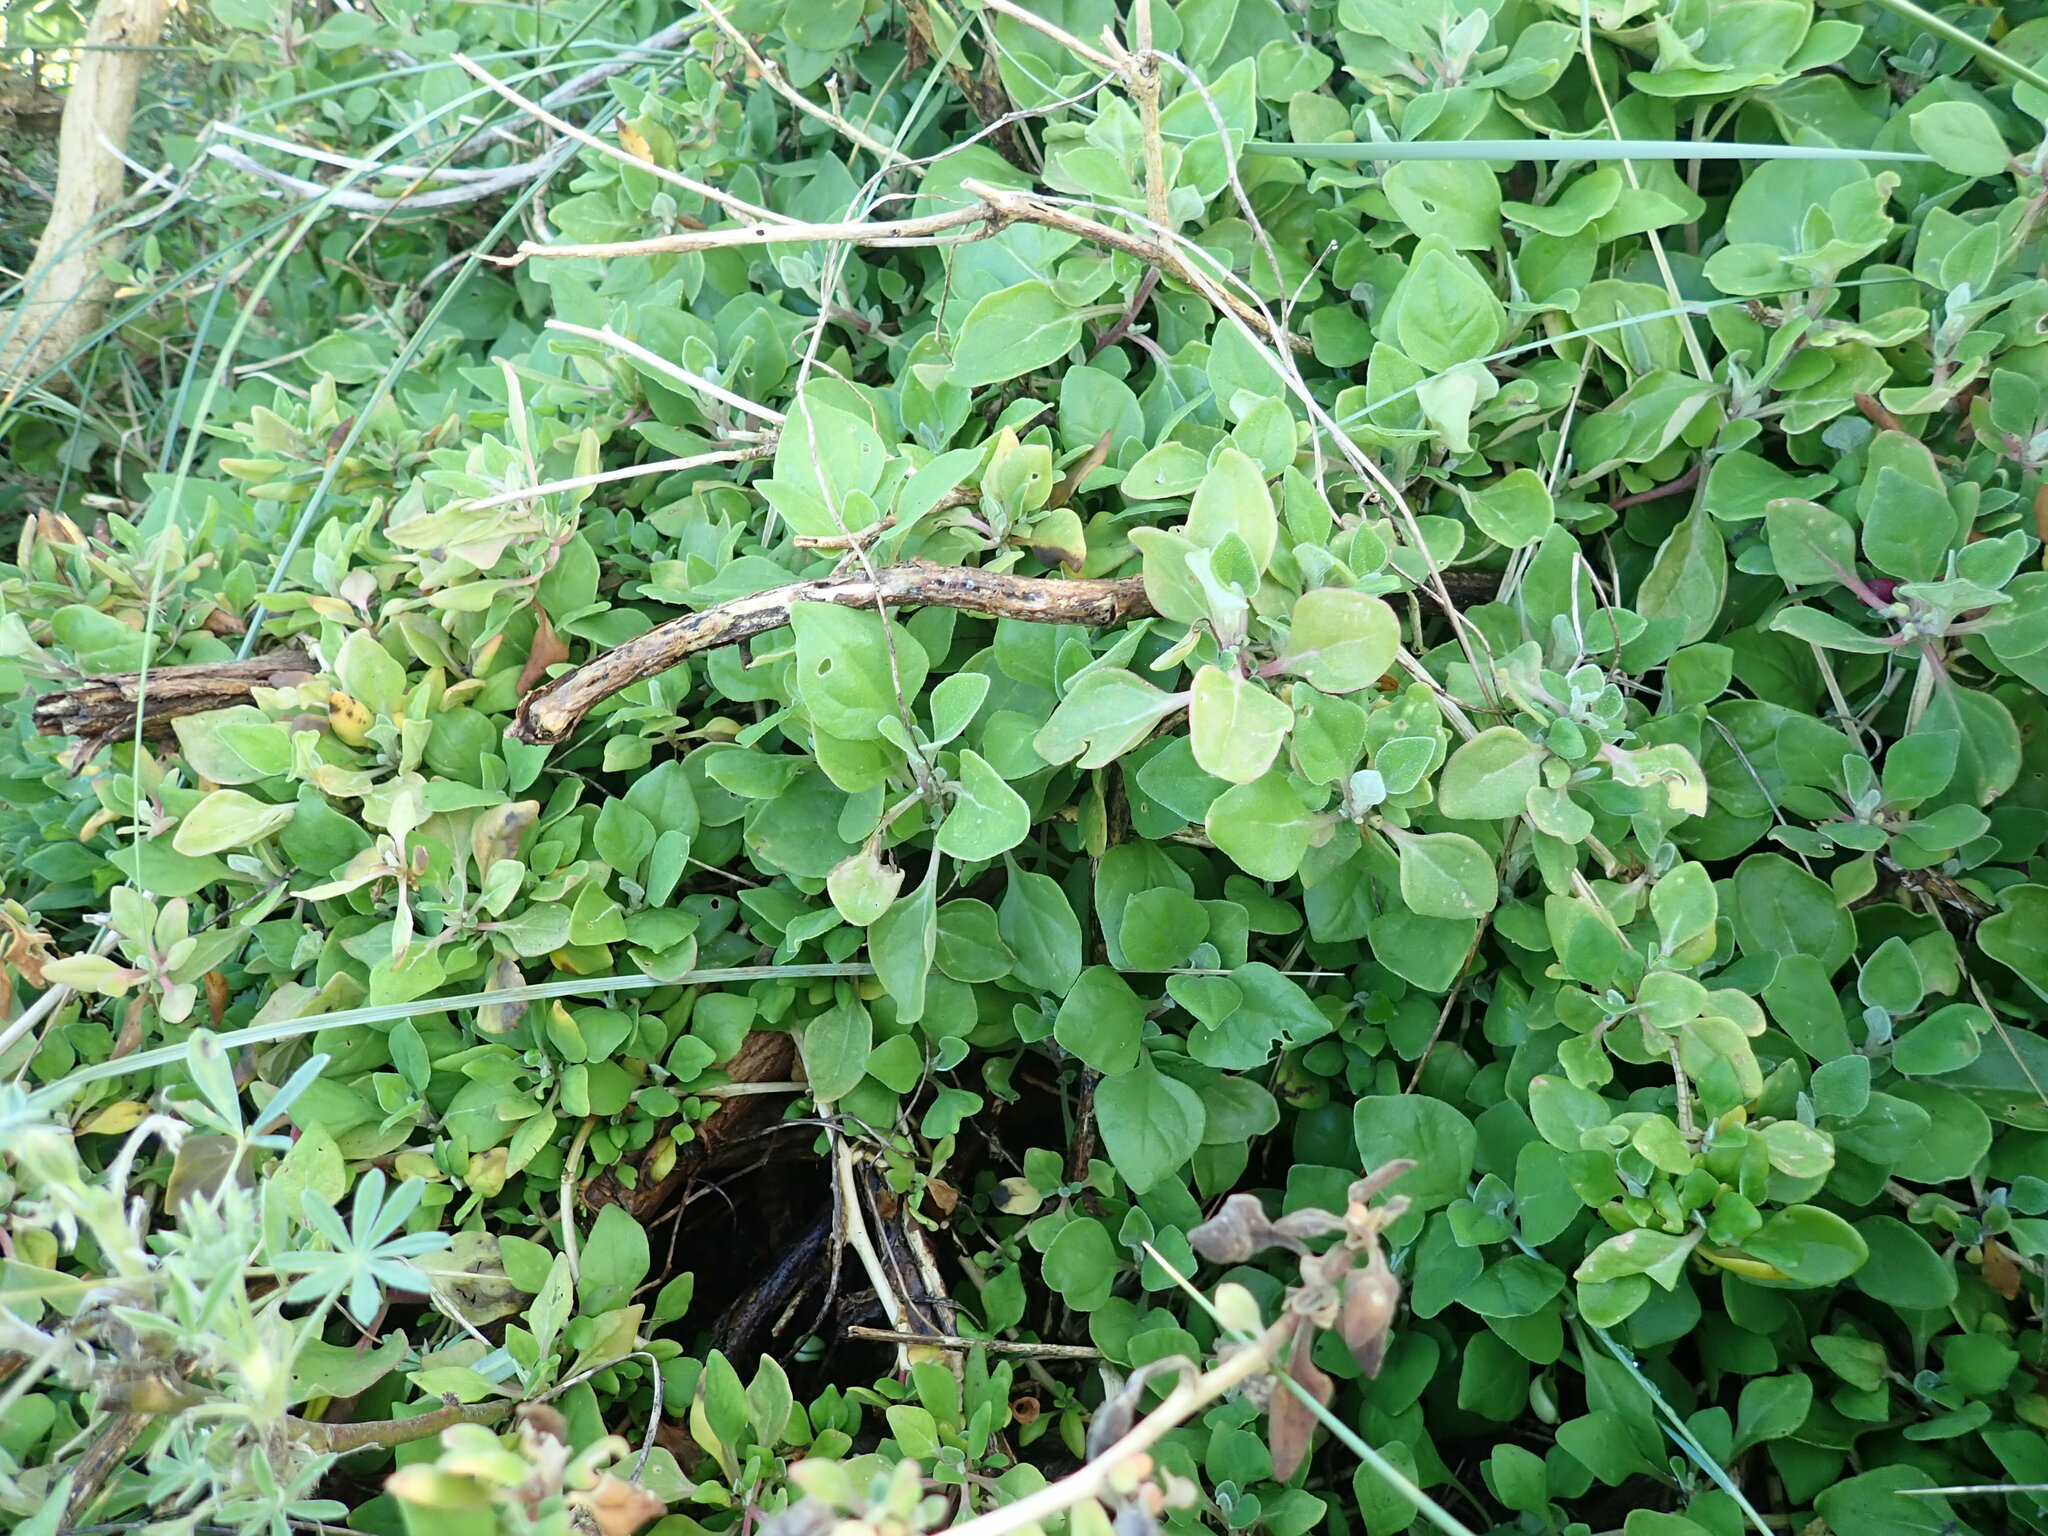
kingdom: Plantae
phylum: Tracheophyta
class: Magnoliopsida
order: Caryophyllales
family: Aizoaceae
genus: Tetragonia
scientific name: Tetragonia implexicoma
